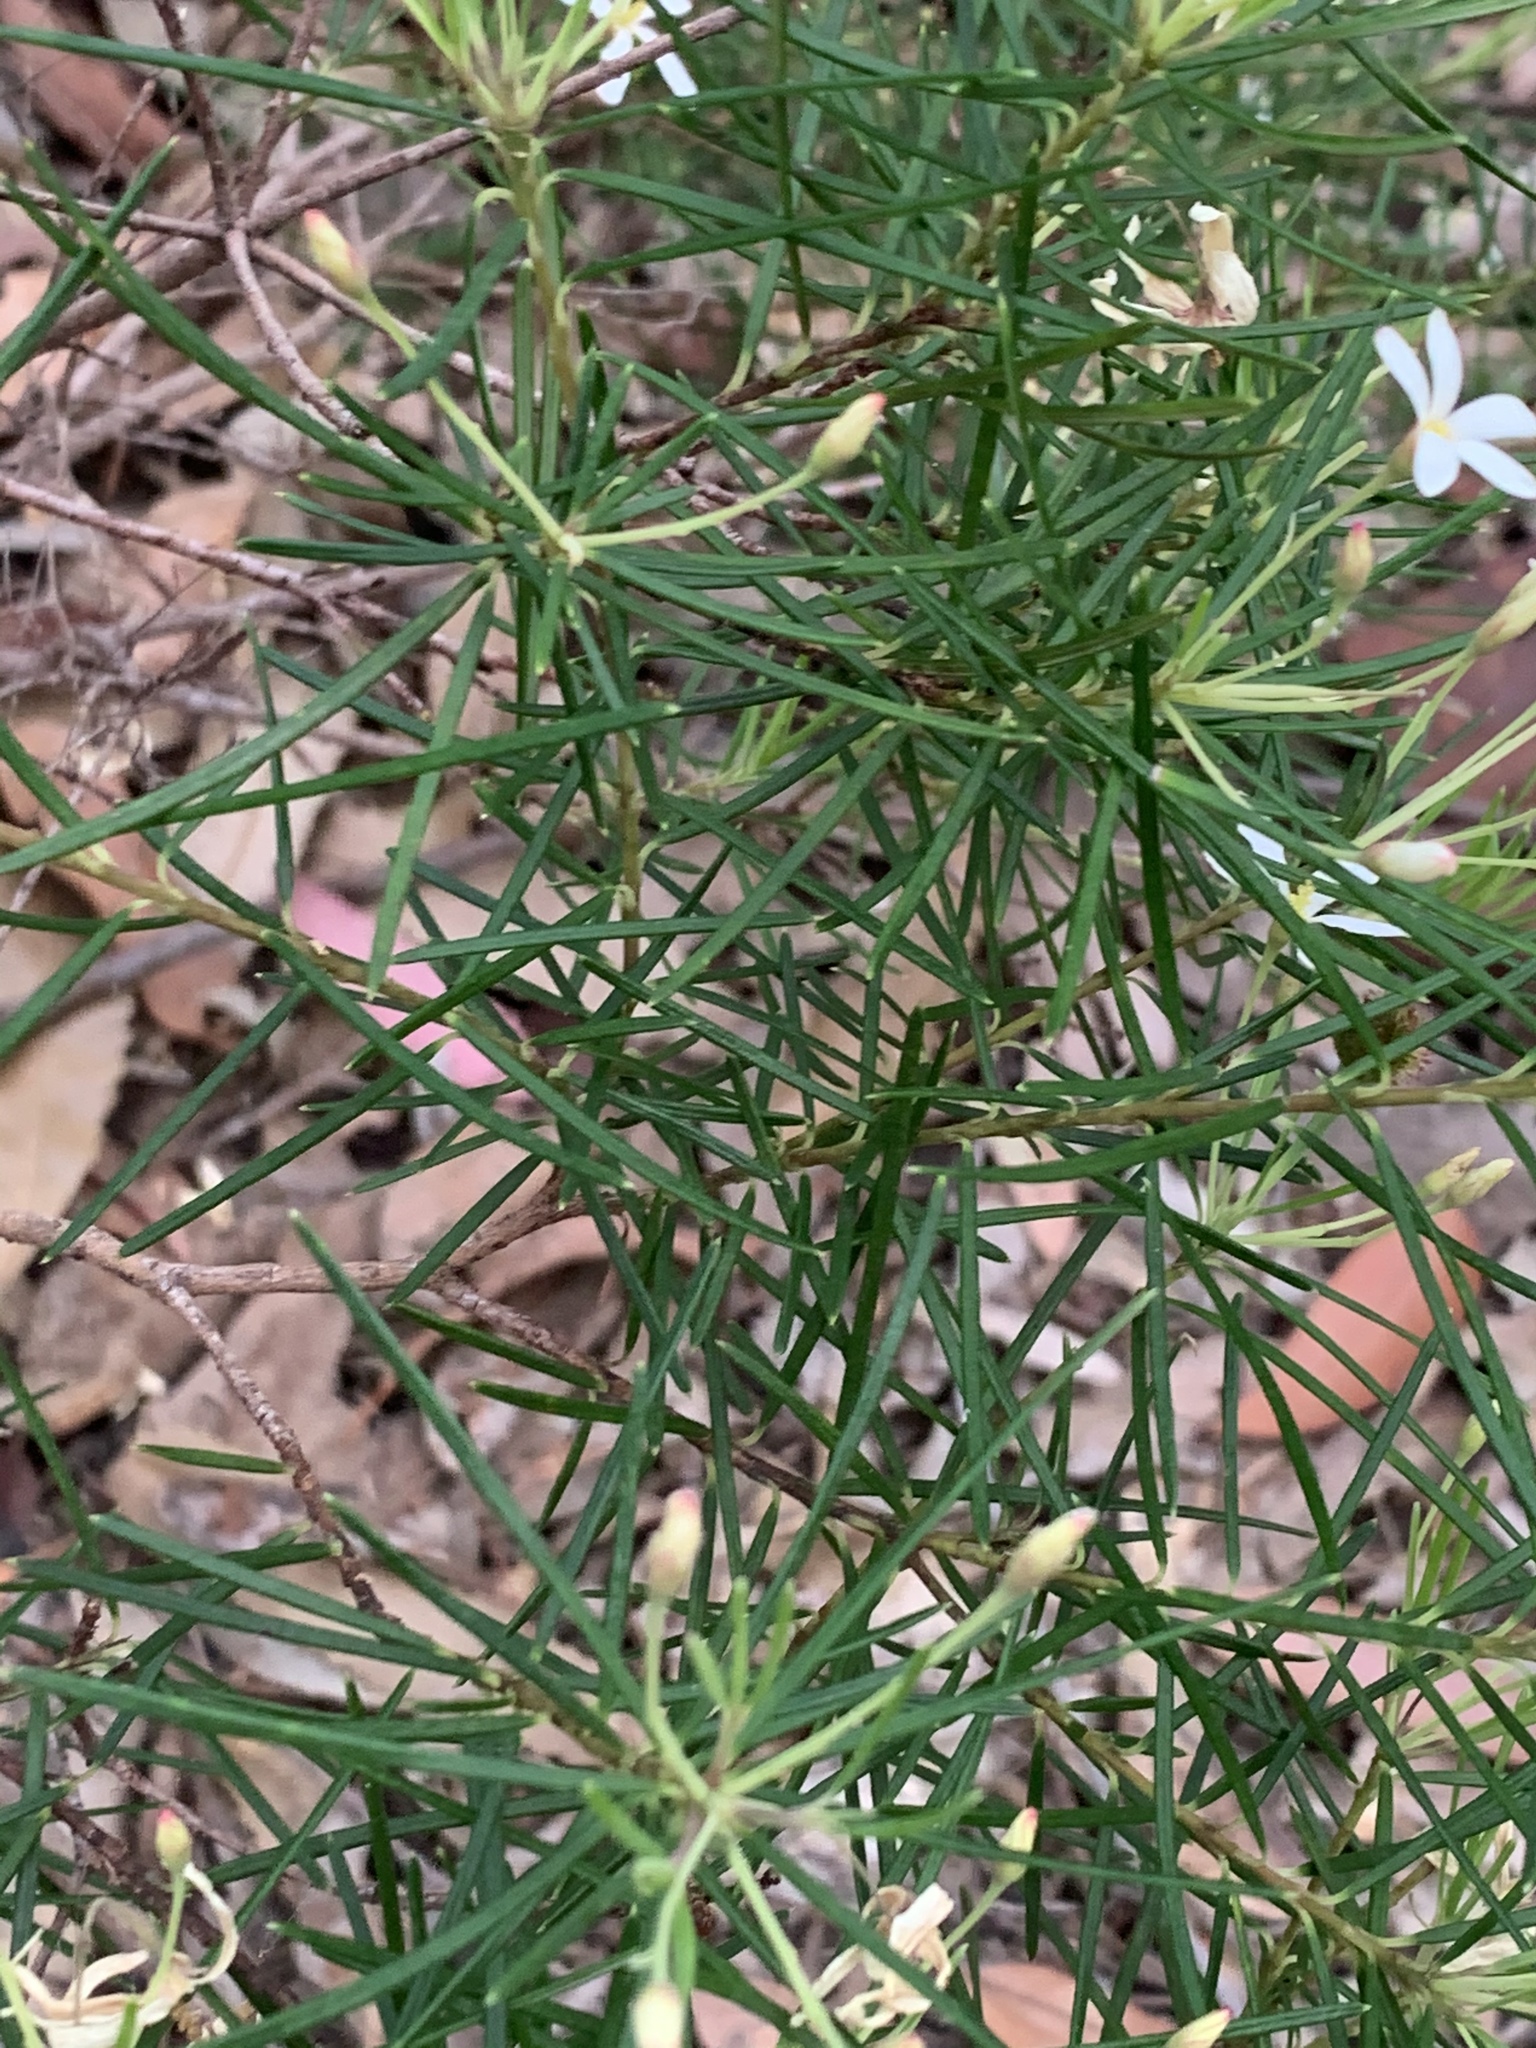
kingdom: Plantae
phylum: Tracheophyta
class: Magnoliopsida
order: Malpighiales
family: Euphorbiaceae
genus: Ricinocarpos
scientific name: Ricinocarpos pinifolius
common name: Weddingbush
